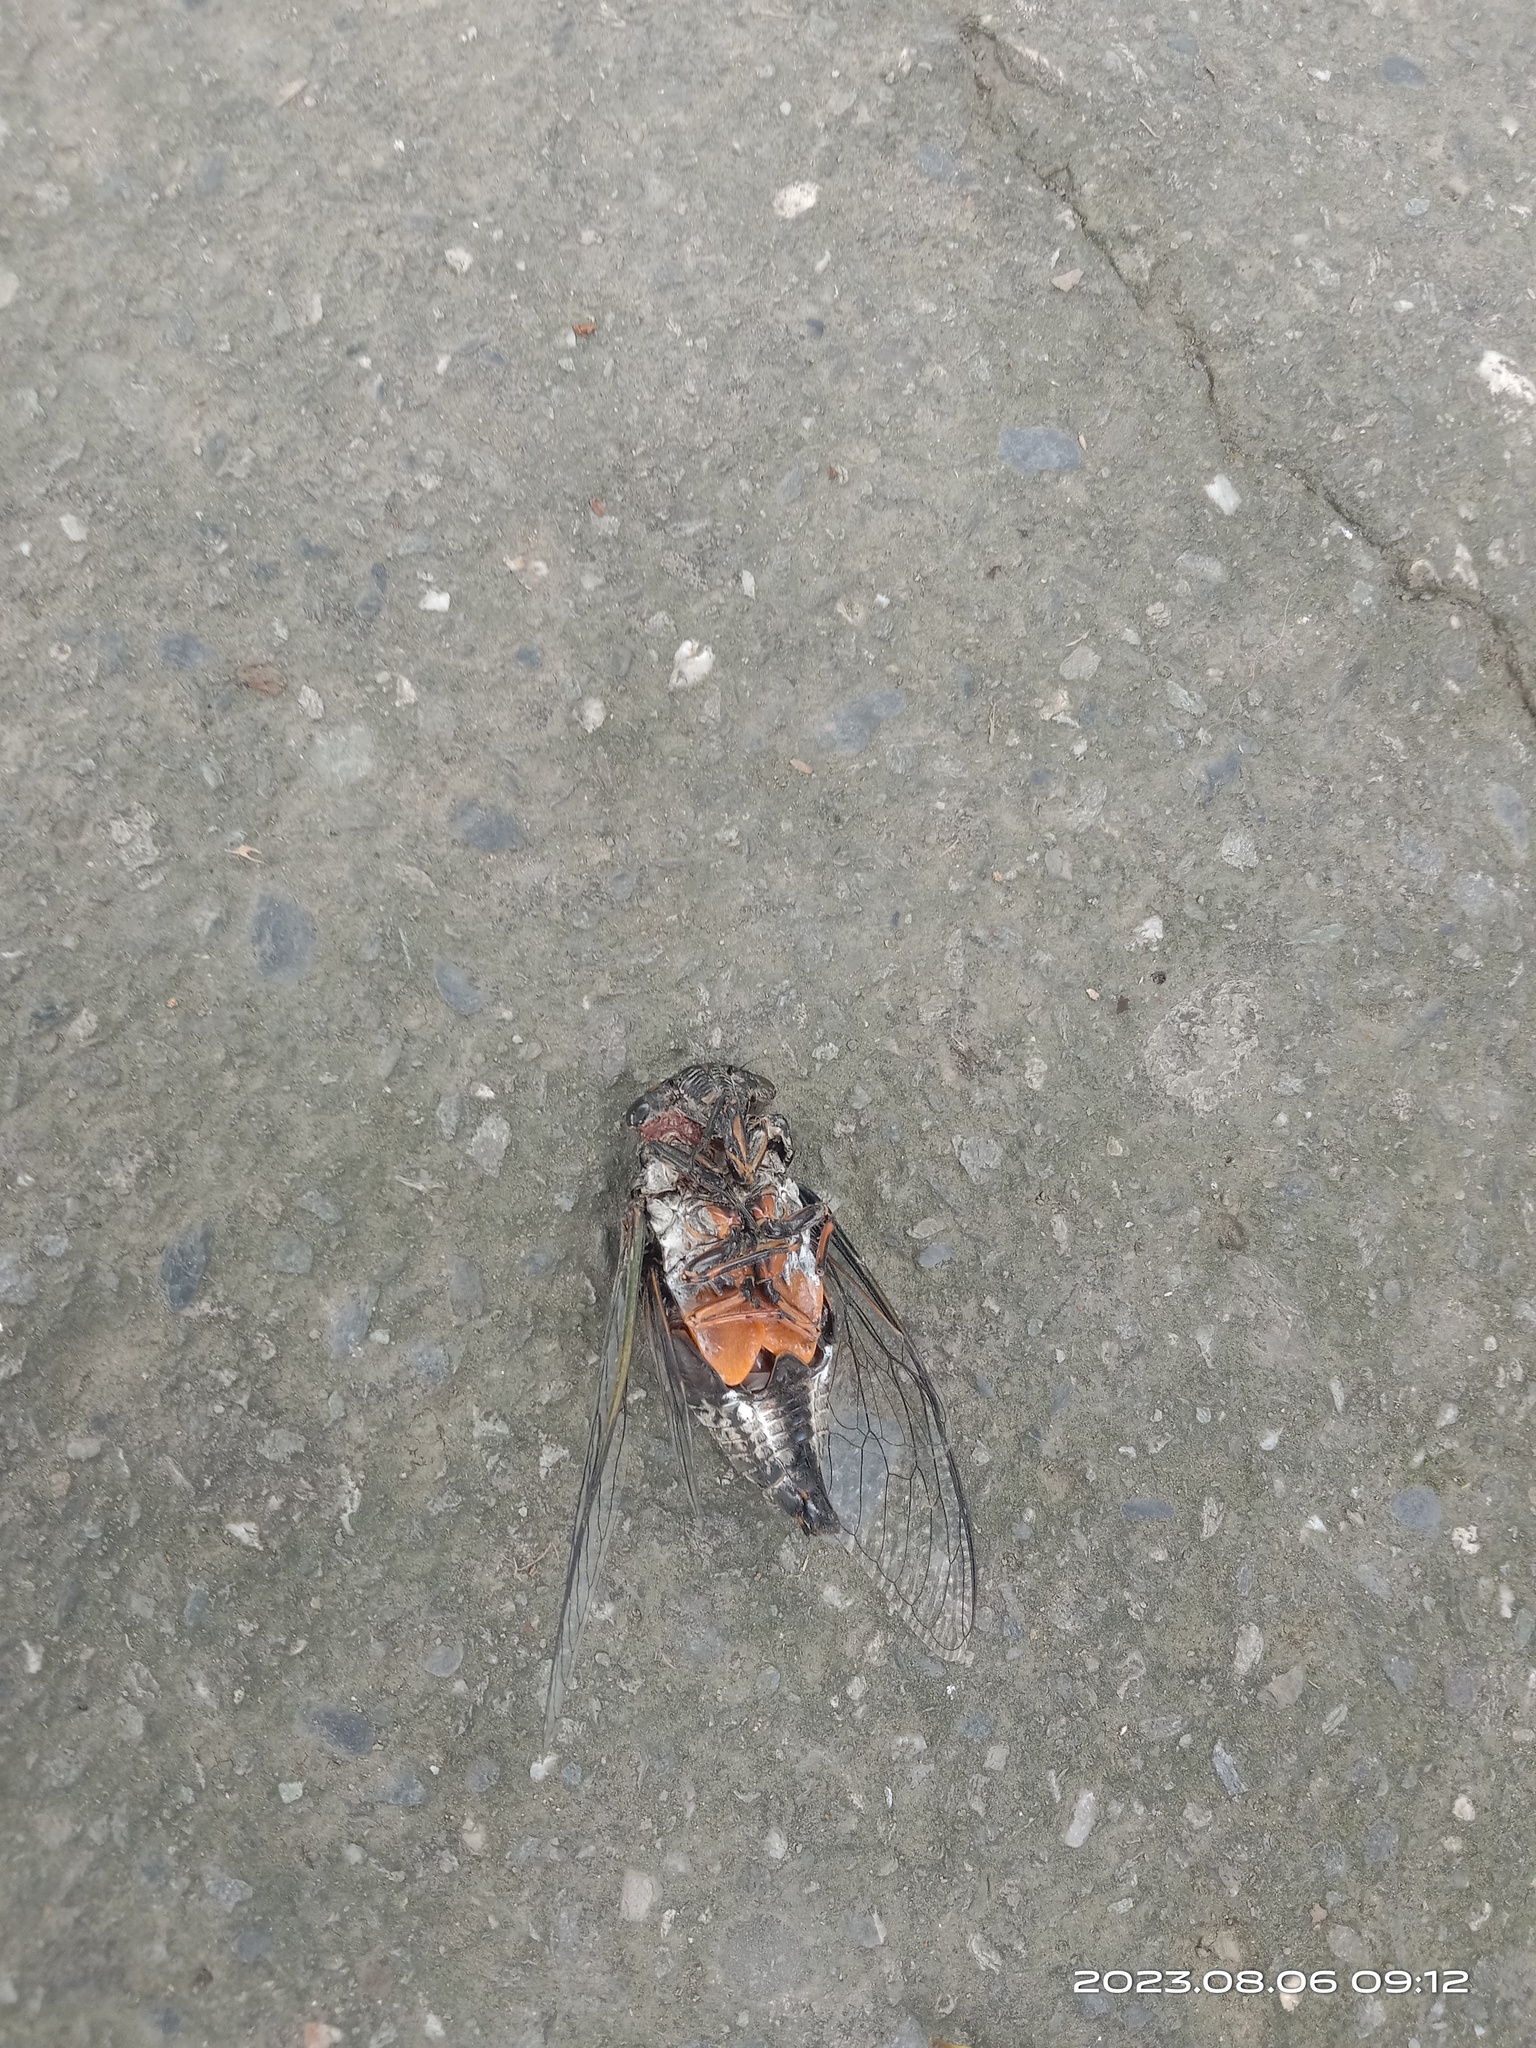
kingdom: Animalia
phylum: Arthropoda
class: Insecta
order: Hemiptera
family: Cicadidae
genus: Cryptotympana
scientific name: Cryptotympana takasagona
